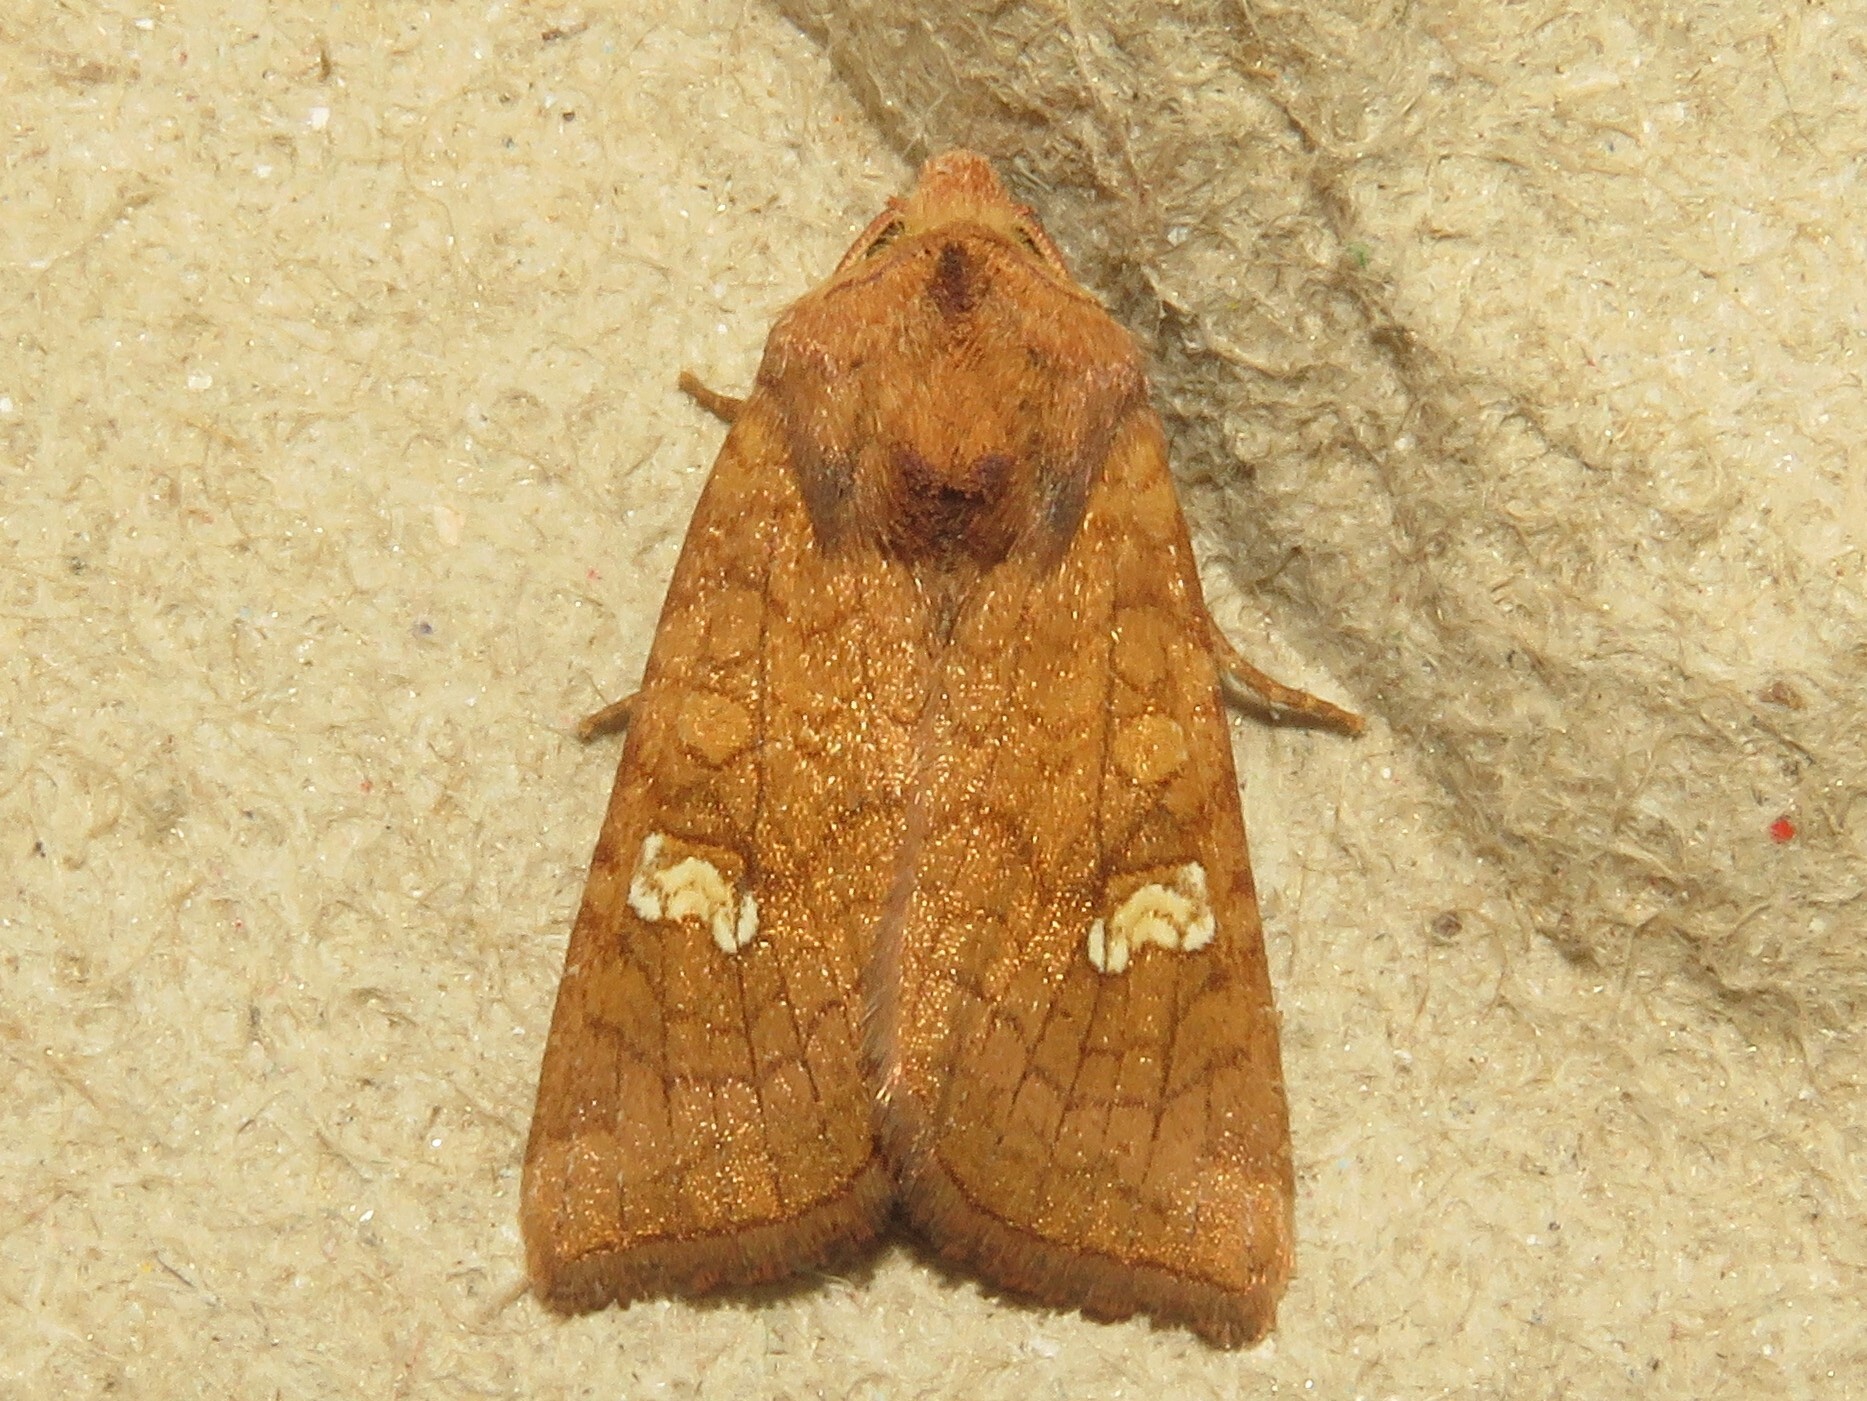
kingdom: Animalia
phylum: Arthropoda
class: Insecta
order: Lepidoptera
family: Noctuidae
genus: Amphipoea
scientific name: Amphipoea americana
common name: American ear moth
